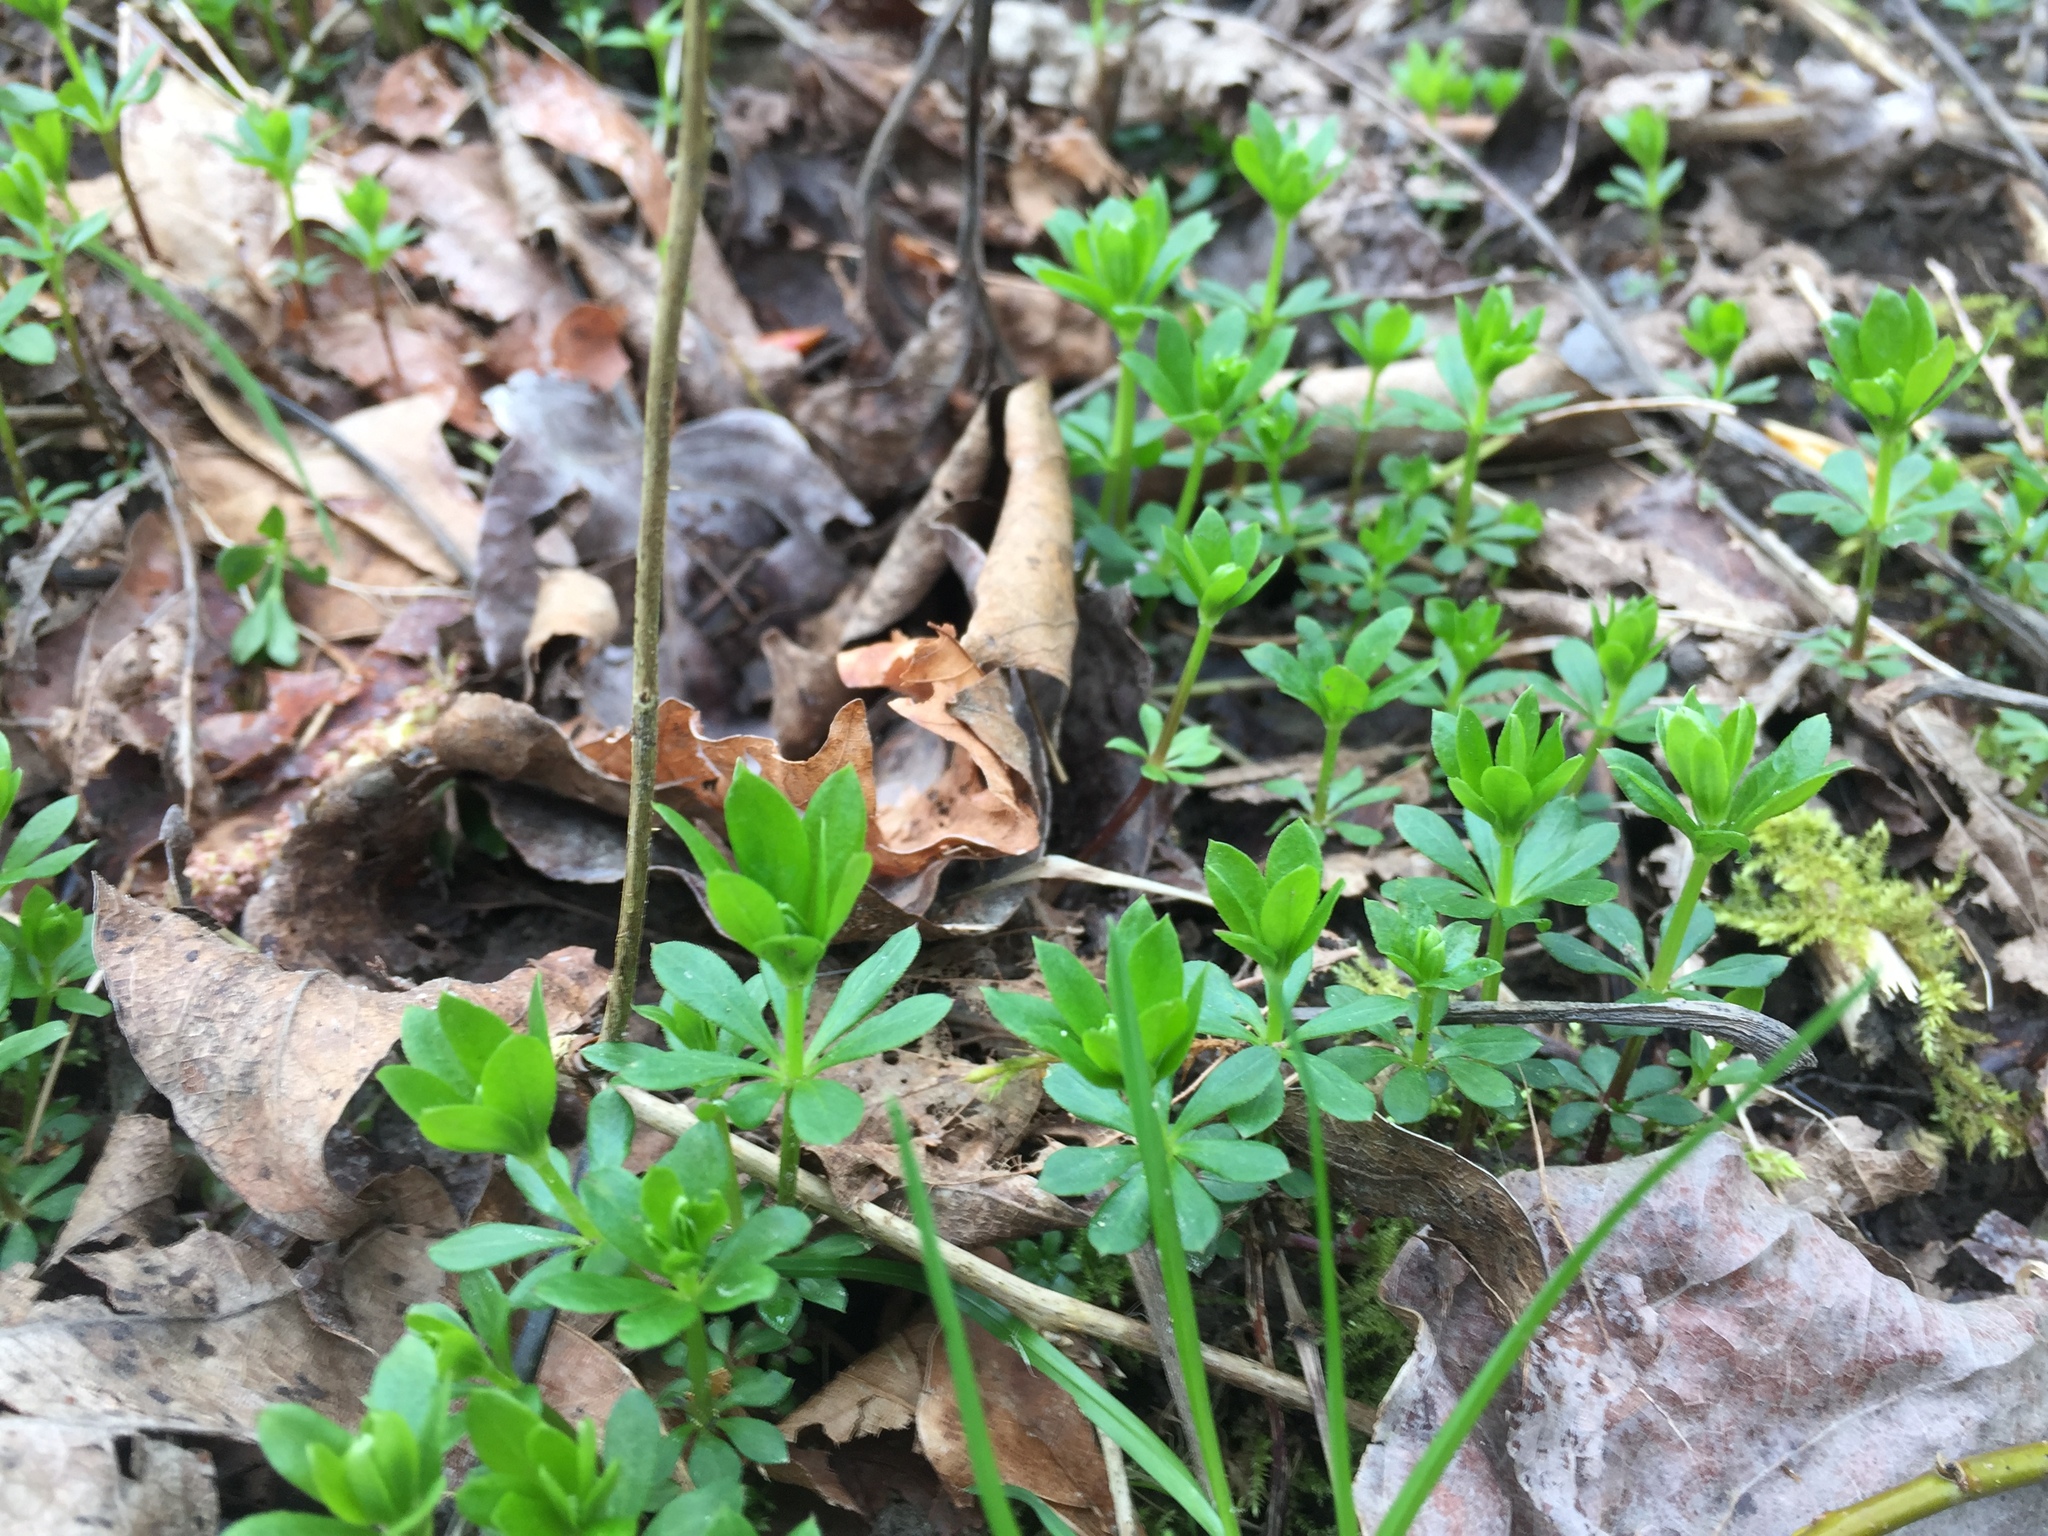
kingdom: Plantae
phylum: Tracheophyta
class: Magnoliopsida
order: Gentianales
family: Rubiaceae
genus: Galium
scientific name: Galium odoratum
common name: Sweet woodruff
